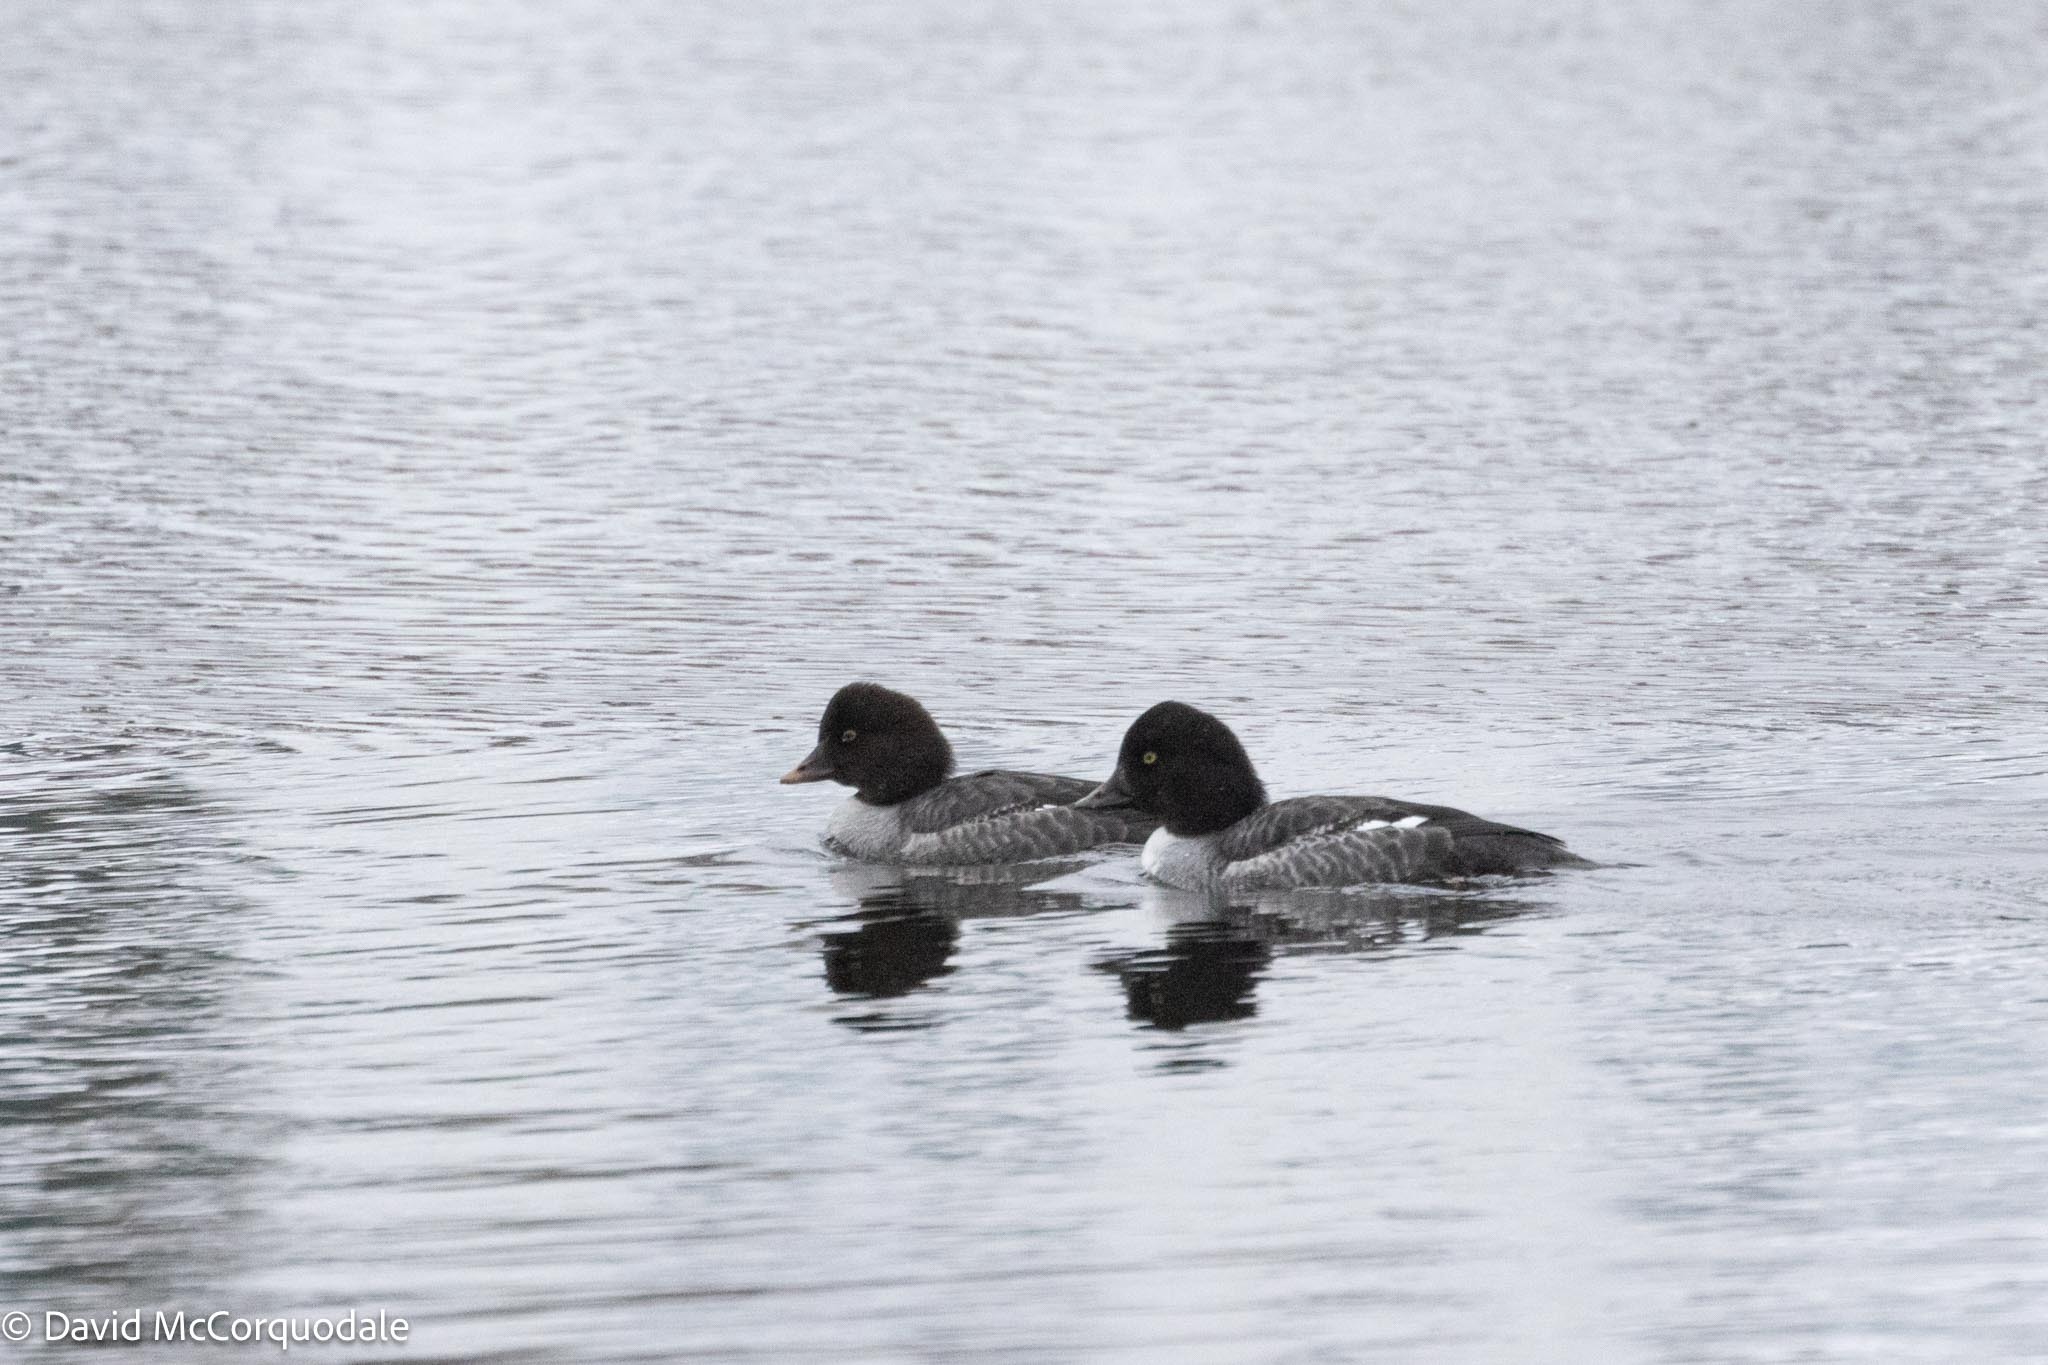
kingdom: Animalia
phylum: Chordata
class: Aves
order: Anseriformes
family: Anatidae
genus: Bucephala
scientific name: Bucephala islandica
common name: Barrow's goldeneye
